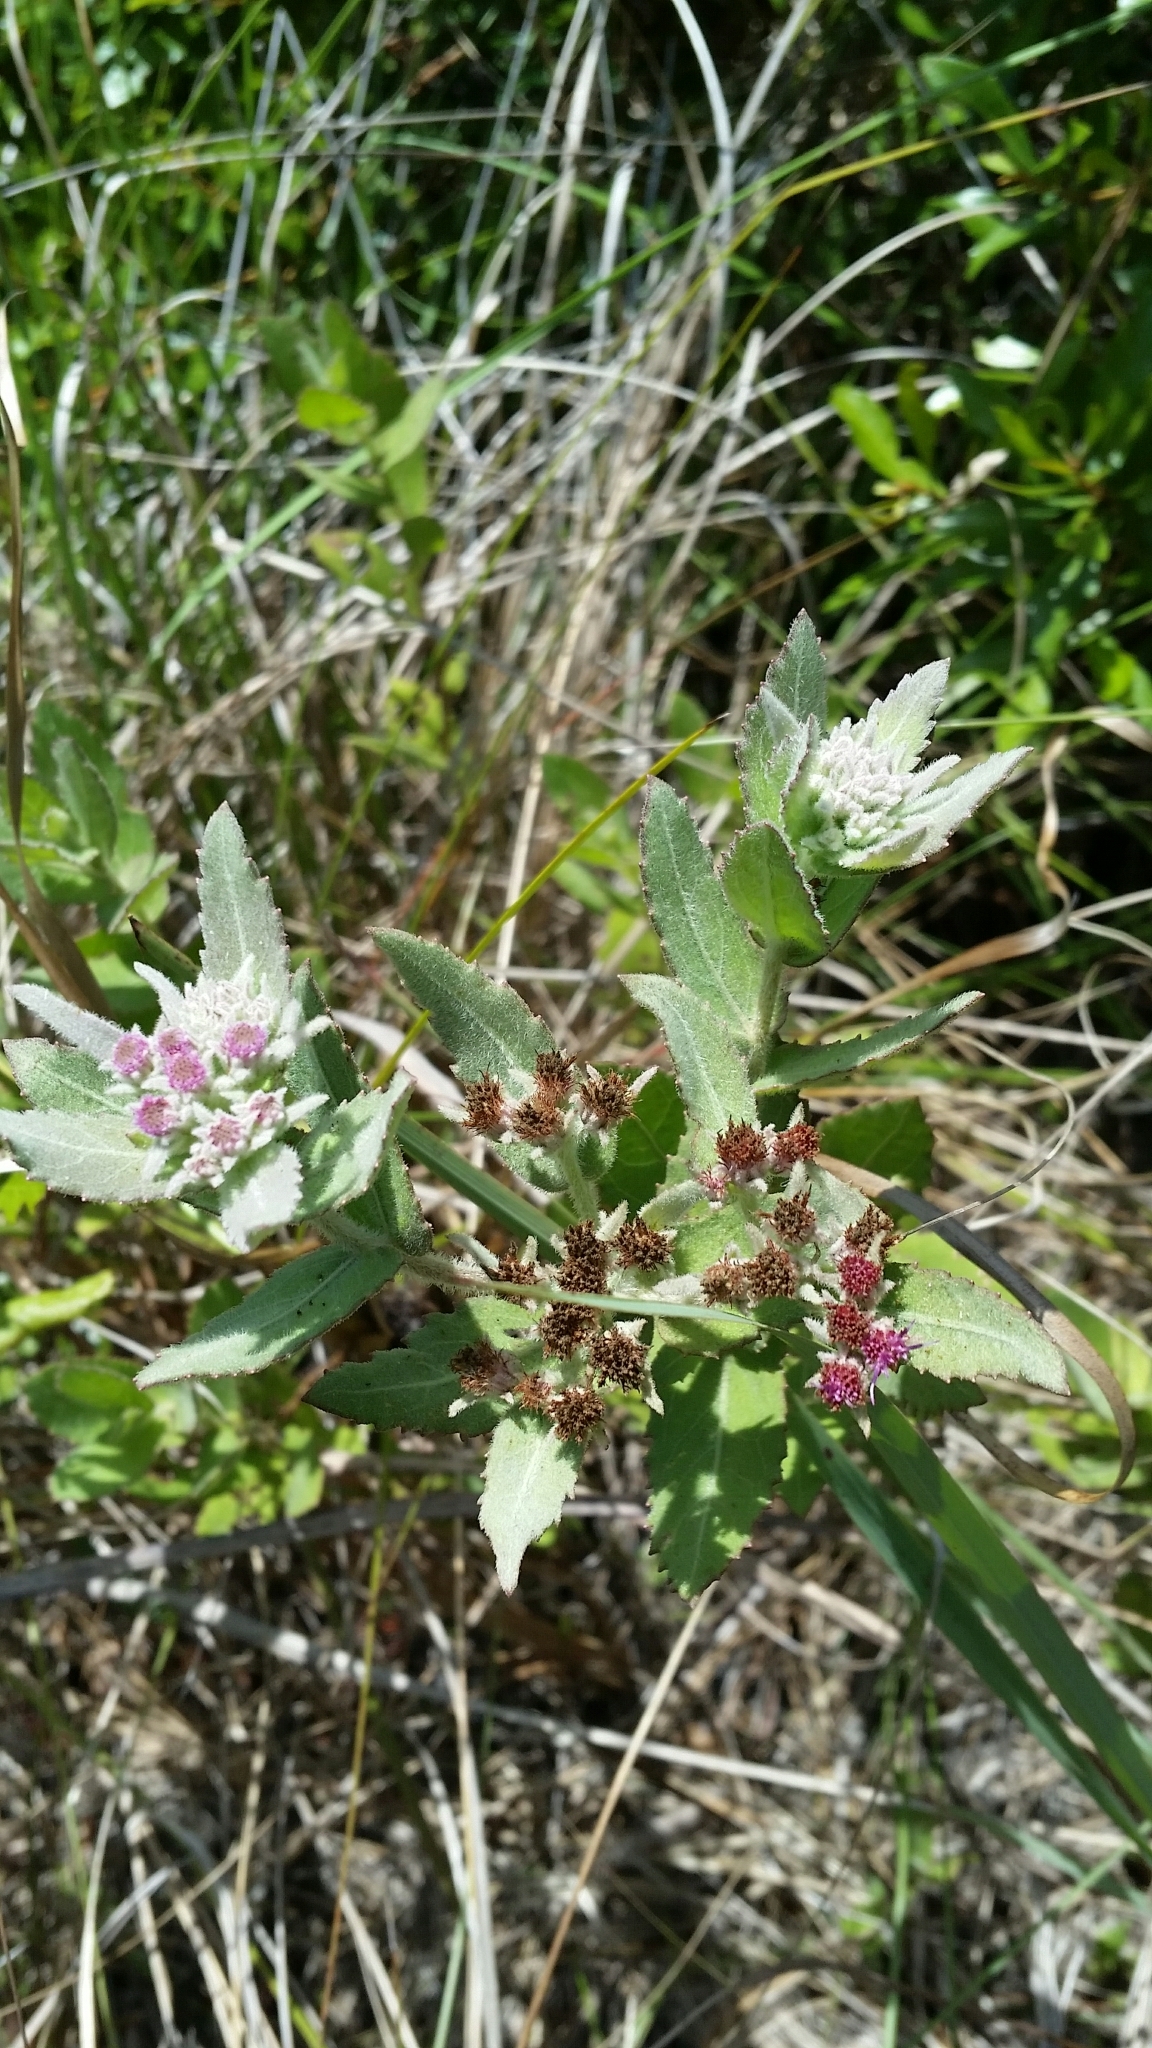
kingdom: Plantae
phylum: Tracheophyta
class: Magnoliopsida
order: Asterales
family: Asteraceae
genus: Pluchea
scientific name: Pluchea baccharis
